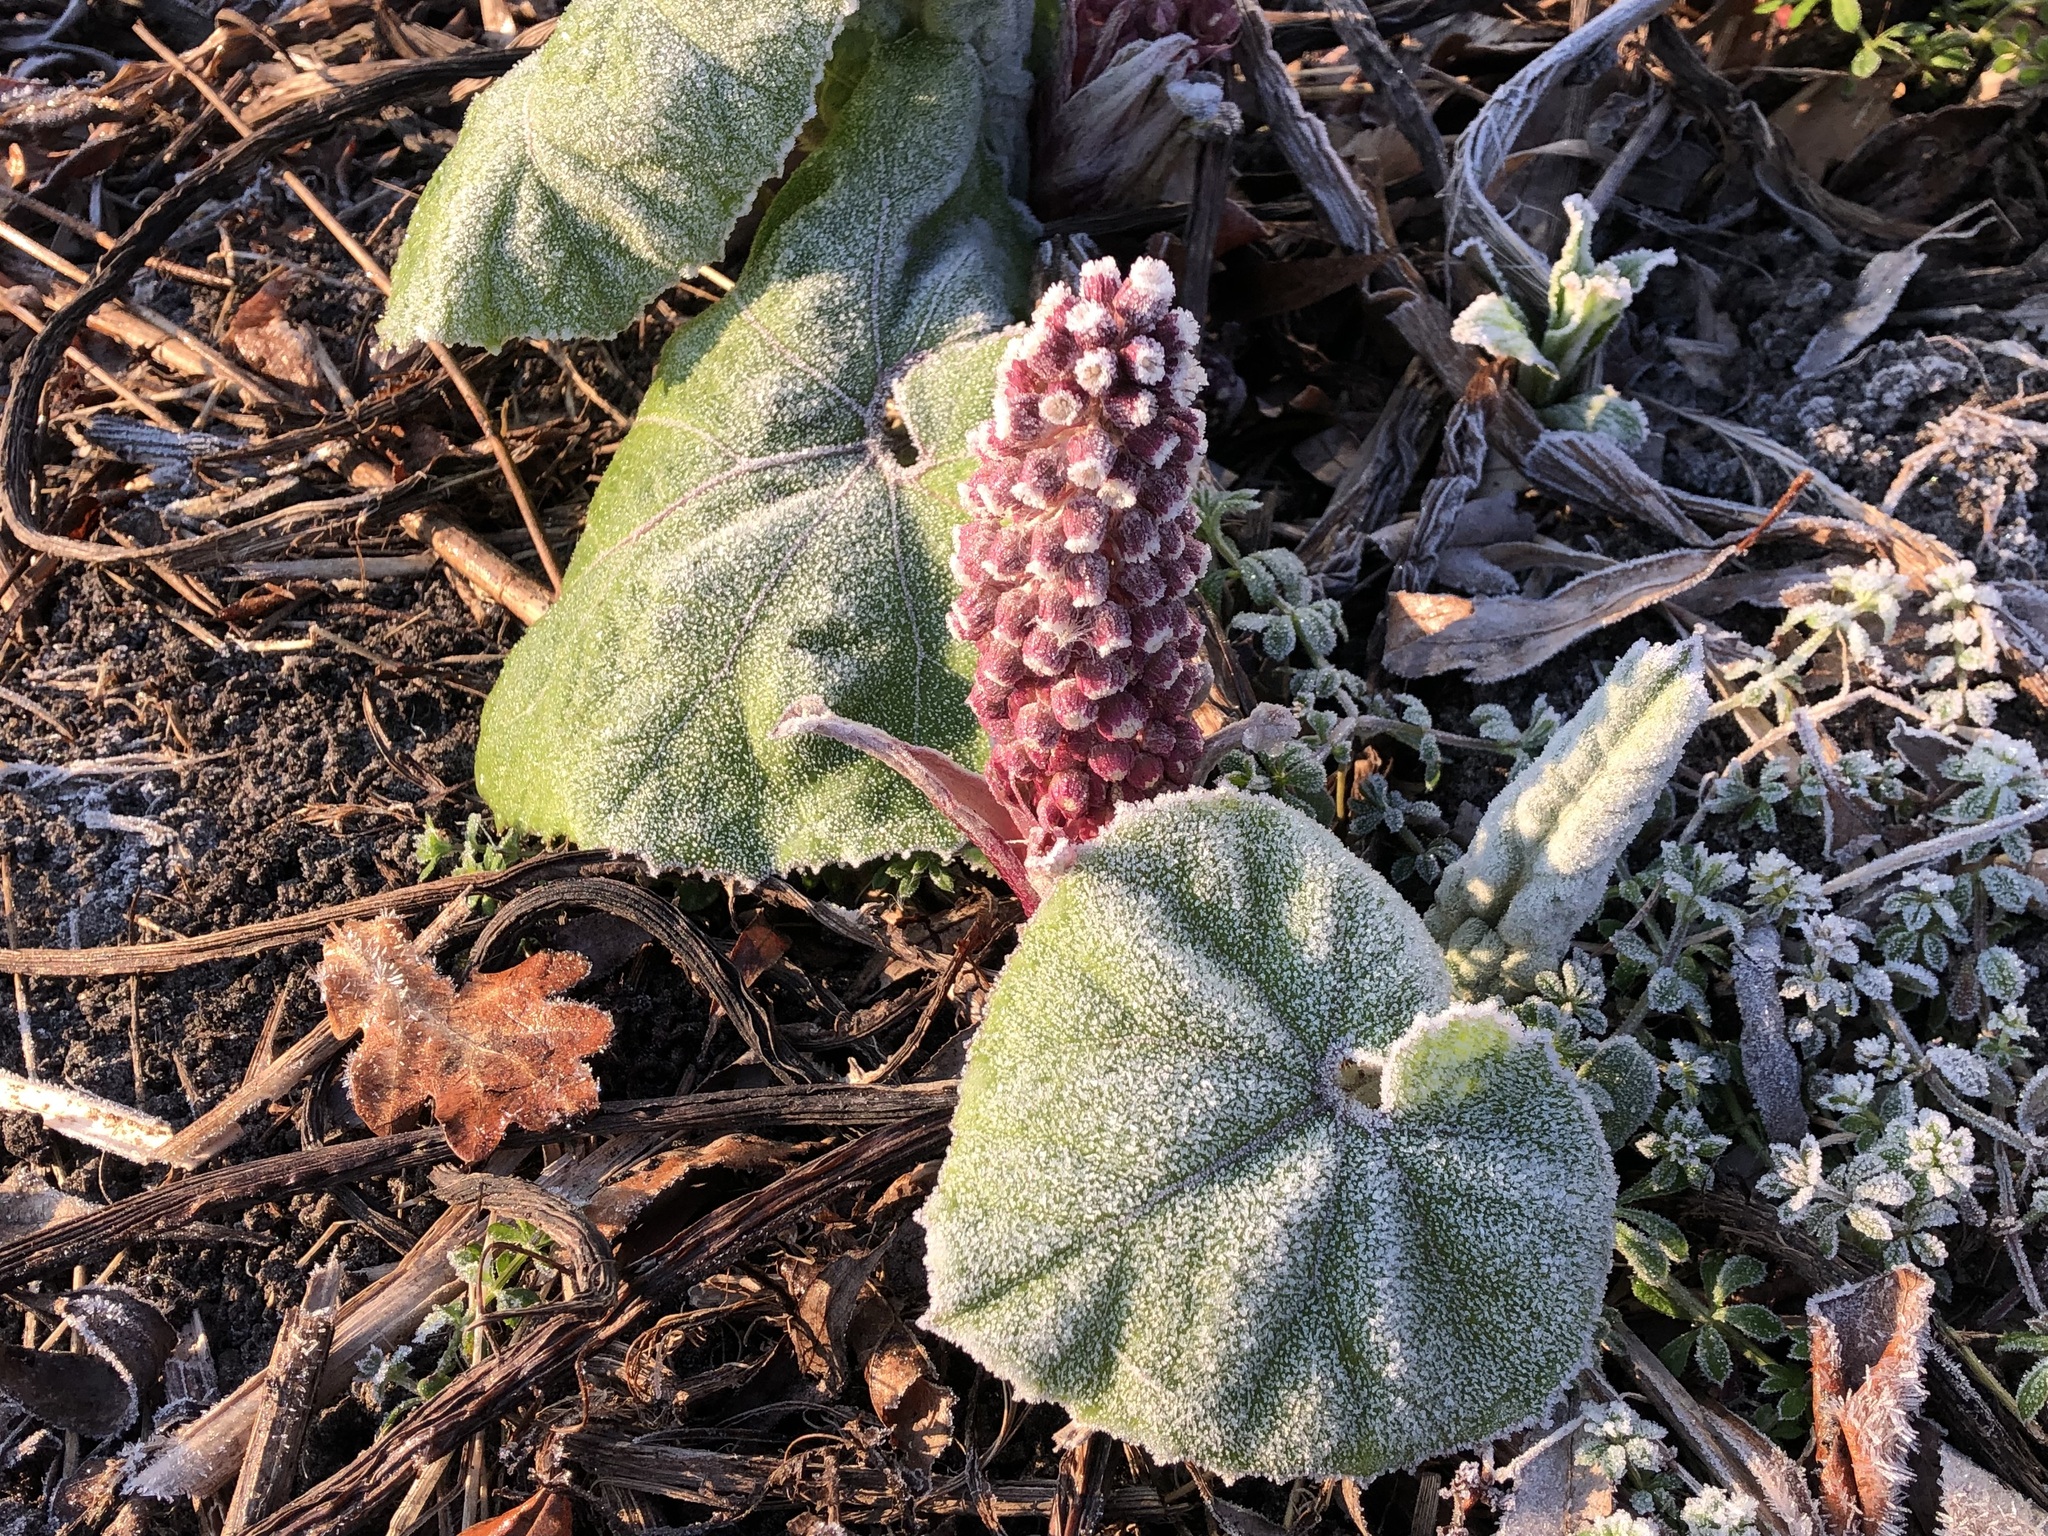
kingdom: Plantae
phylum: Tracheophyta
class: Magnoliopsida
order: Asterales
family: Asteraceae
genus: Petasites
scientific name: Petasites hybridus
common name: Butterbur
